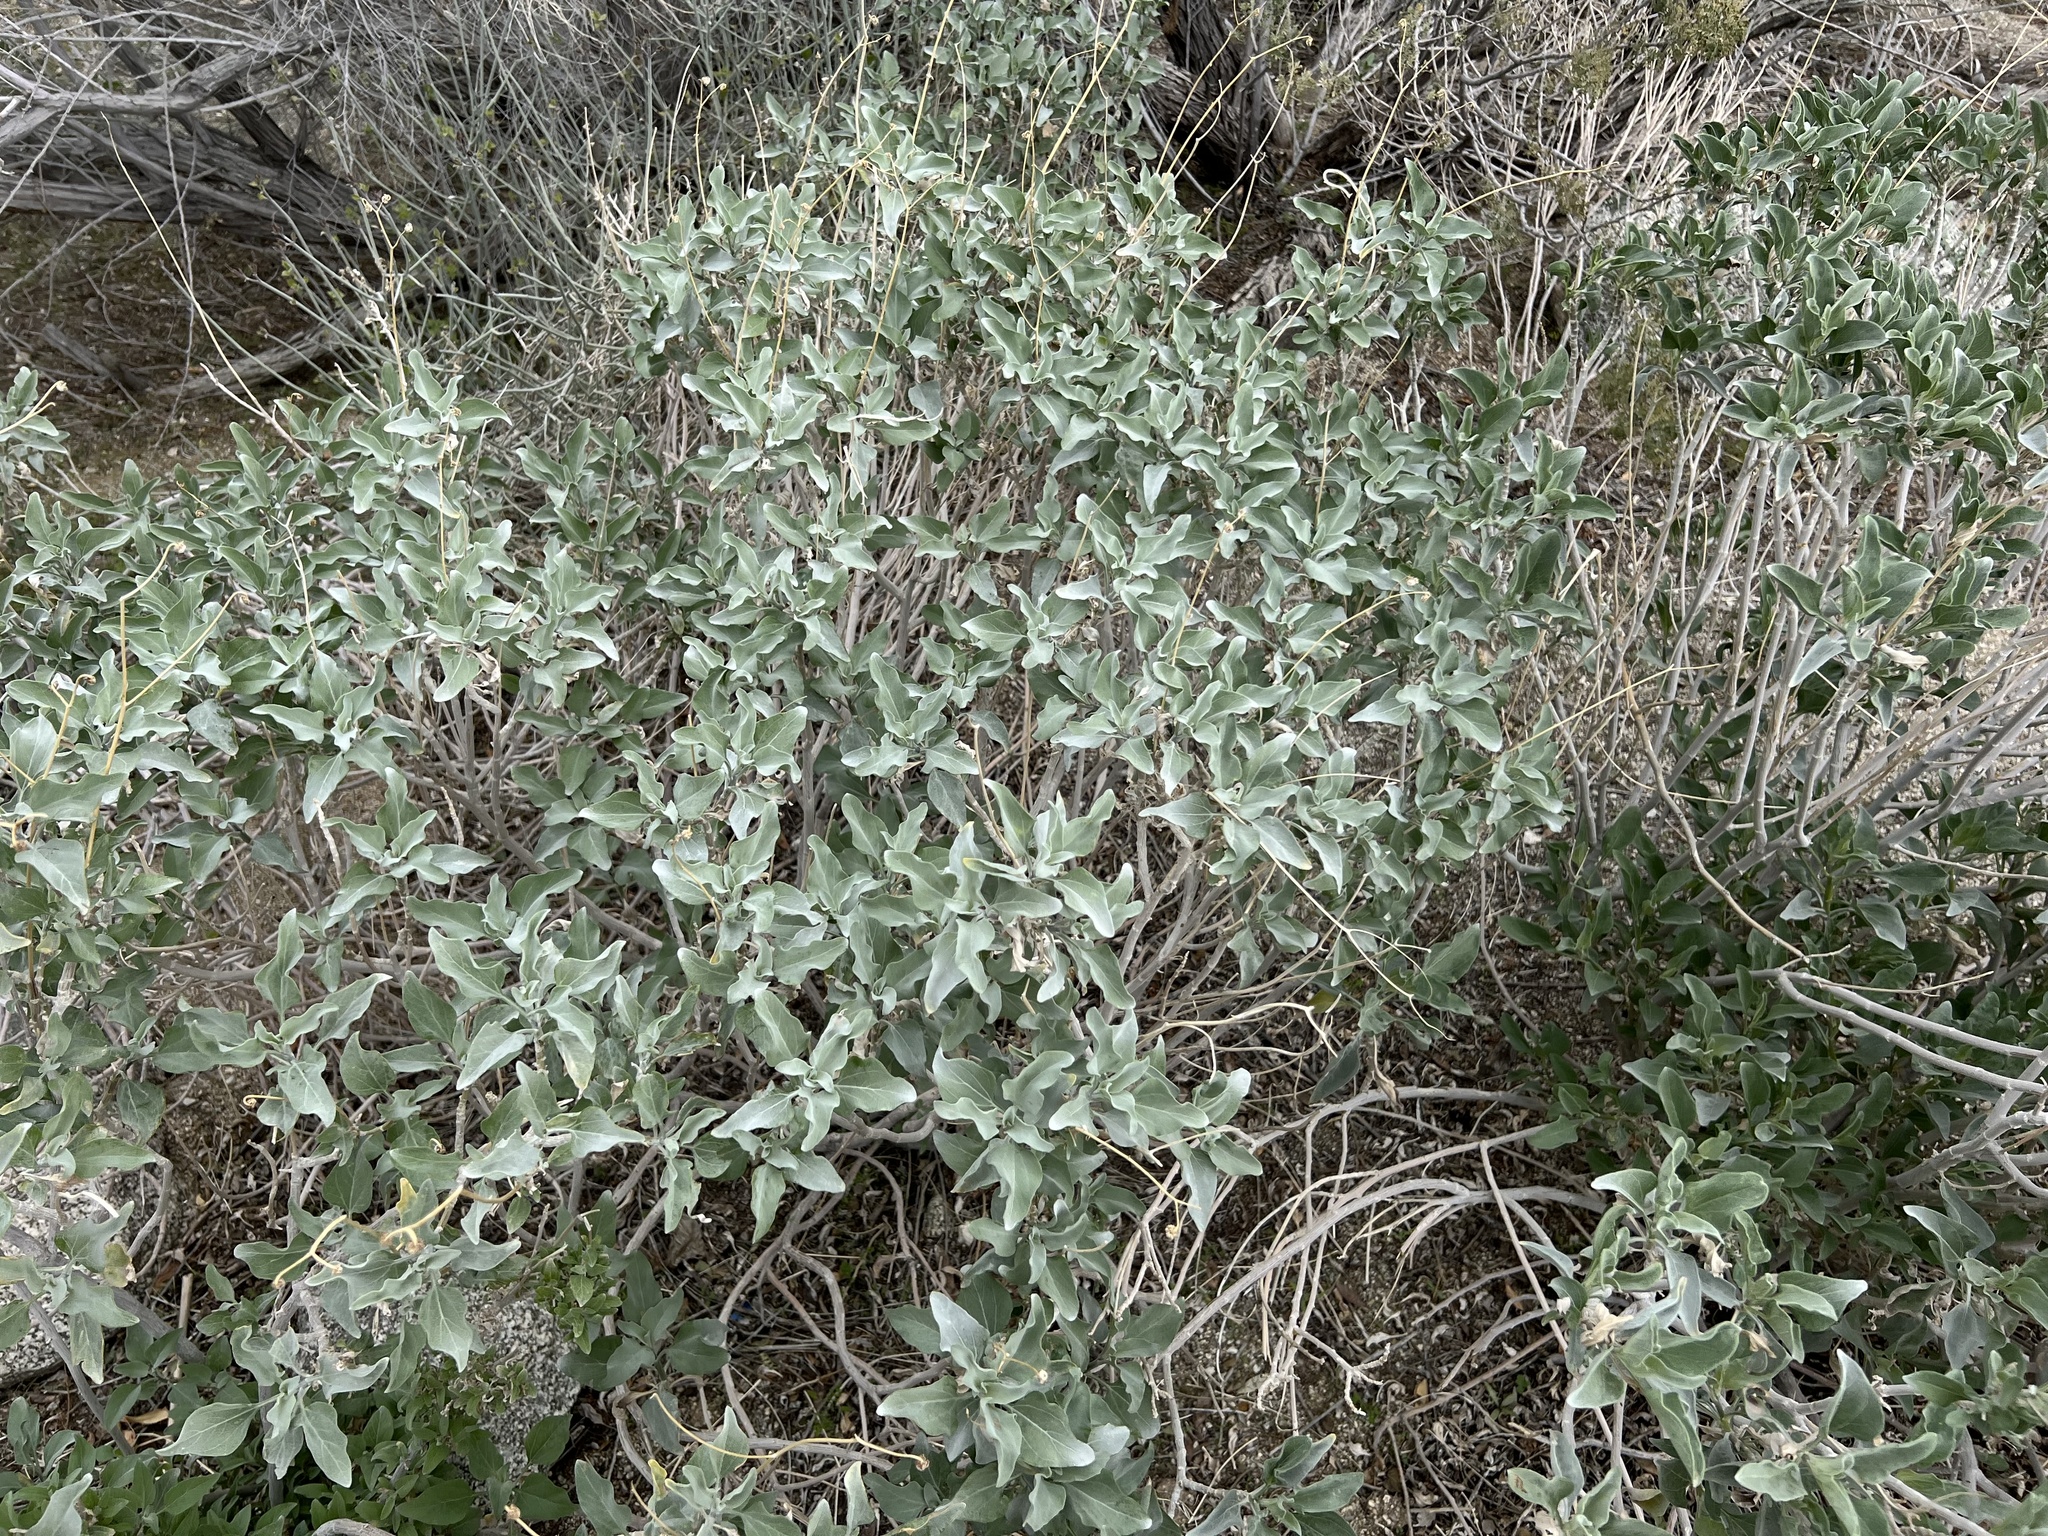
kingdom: Plantae
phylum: Tracheophyta
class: Magnoliopsida
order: Asterales
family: Asteraceae
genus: Encelia
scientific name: Encelia farinosa
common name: Brittlebush
